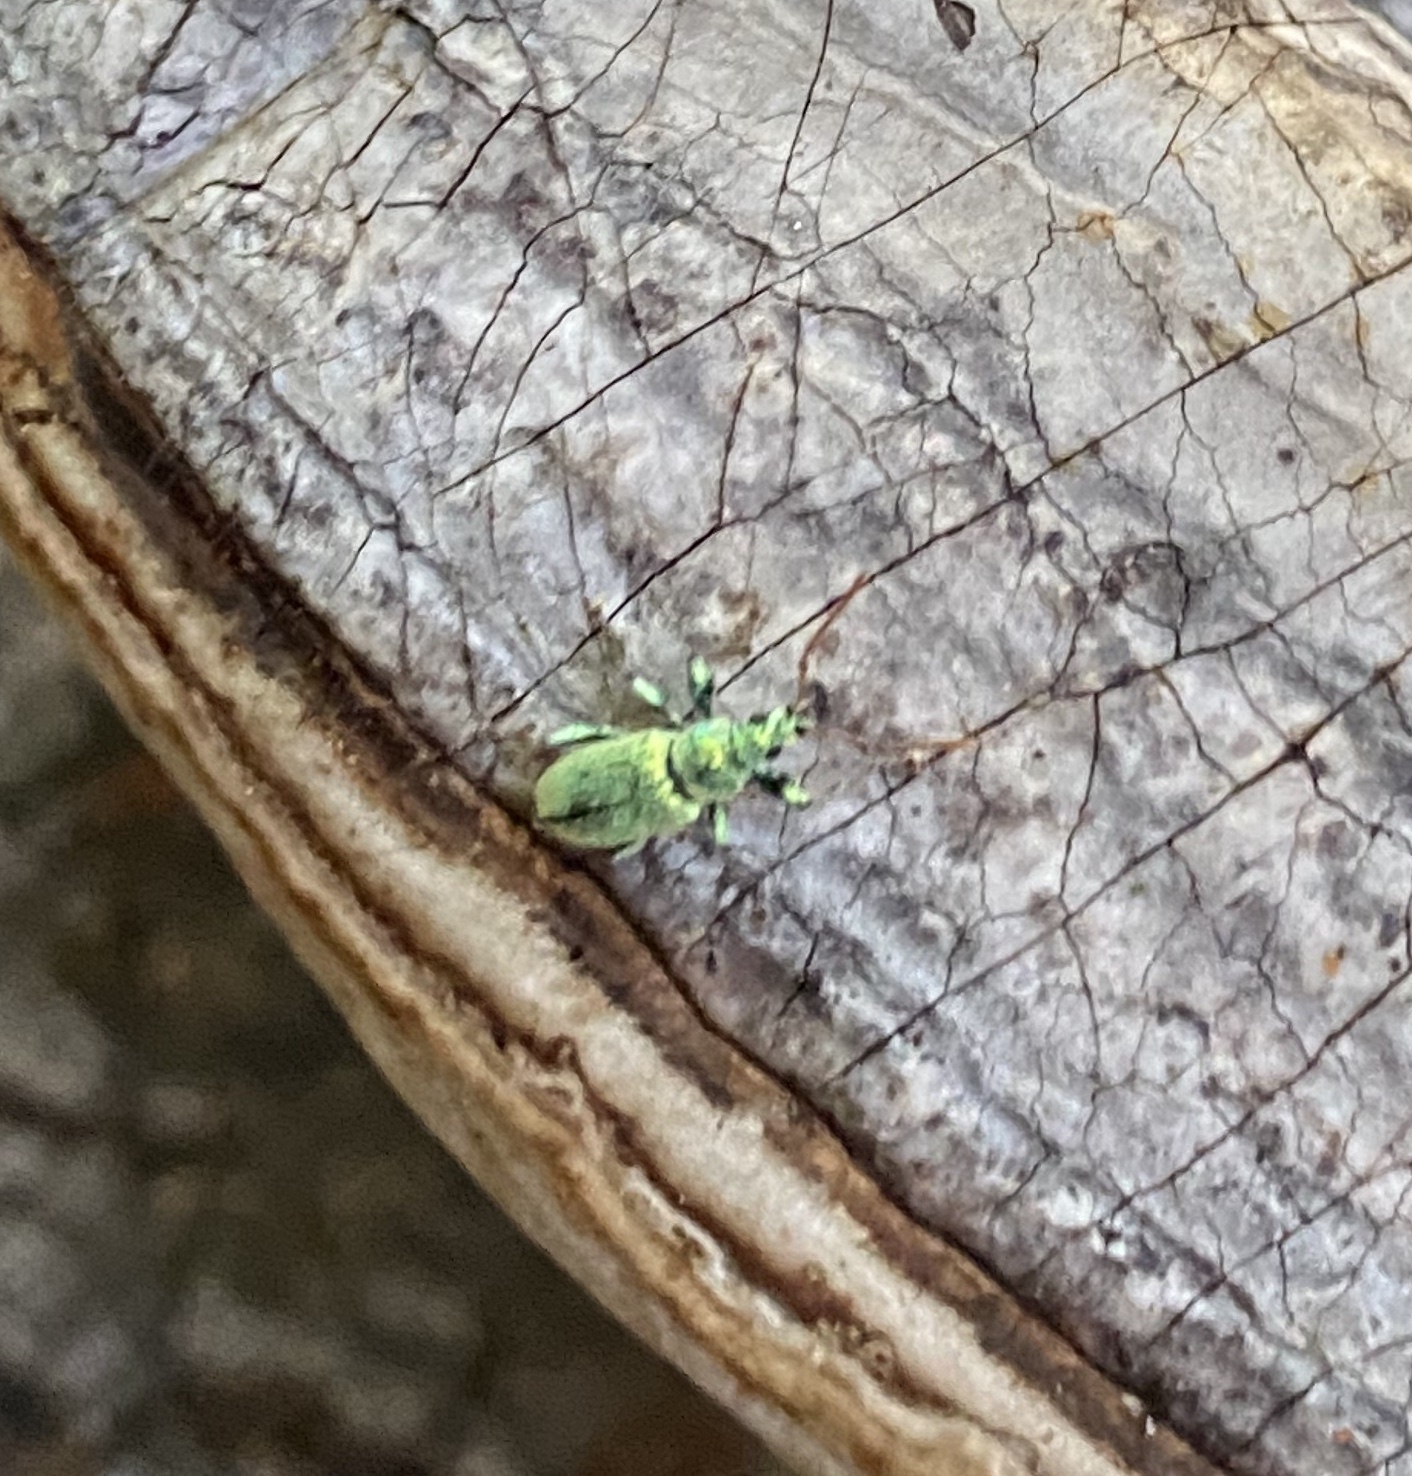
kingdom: Animalia
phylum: Arthropoda
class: Insecta
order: Coleoptera
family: Curculionidae
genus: Phyllobius
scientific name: Phyllobius arborator
